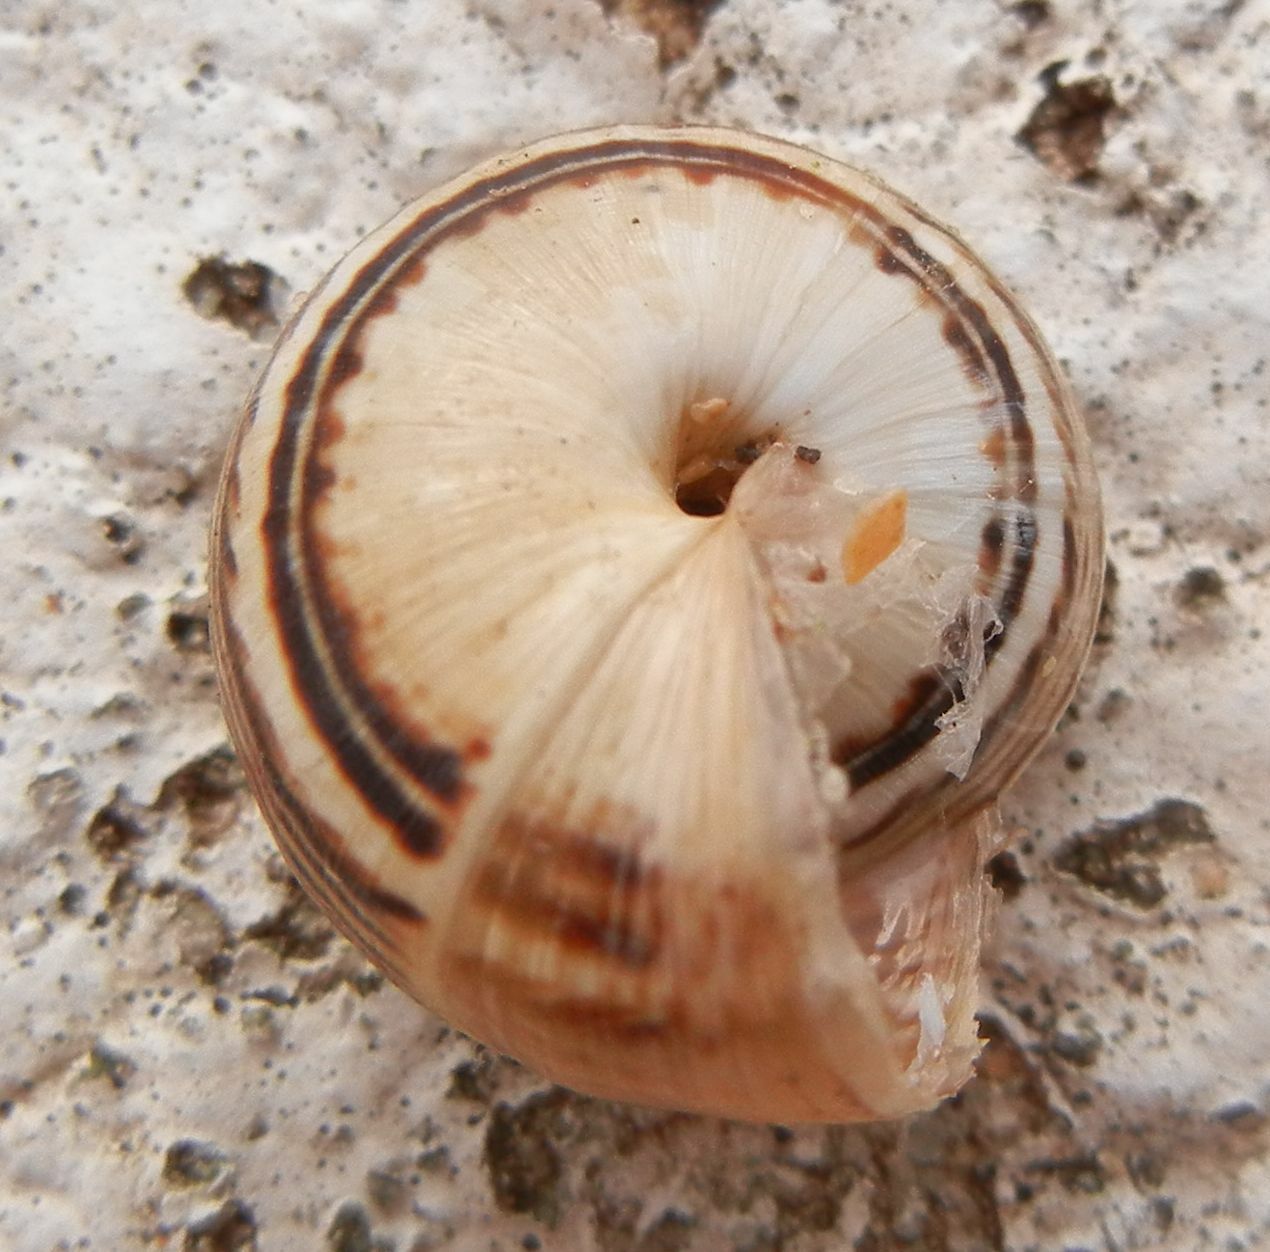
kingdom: Animalia
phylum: Mollusca
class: Gastropoda
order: Stylommatophora
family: Helicidae
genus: Theba
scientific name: Theba pisana
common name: White snail
